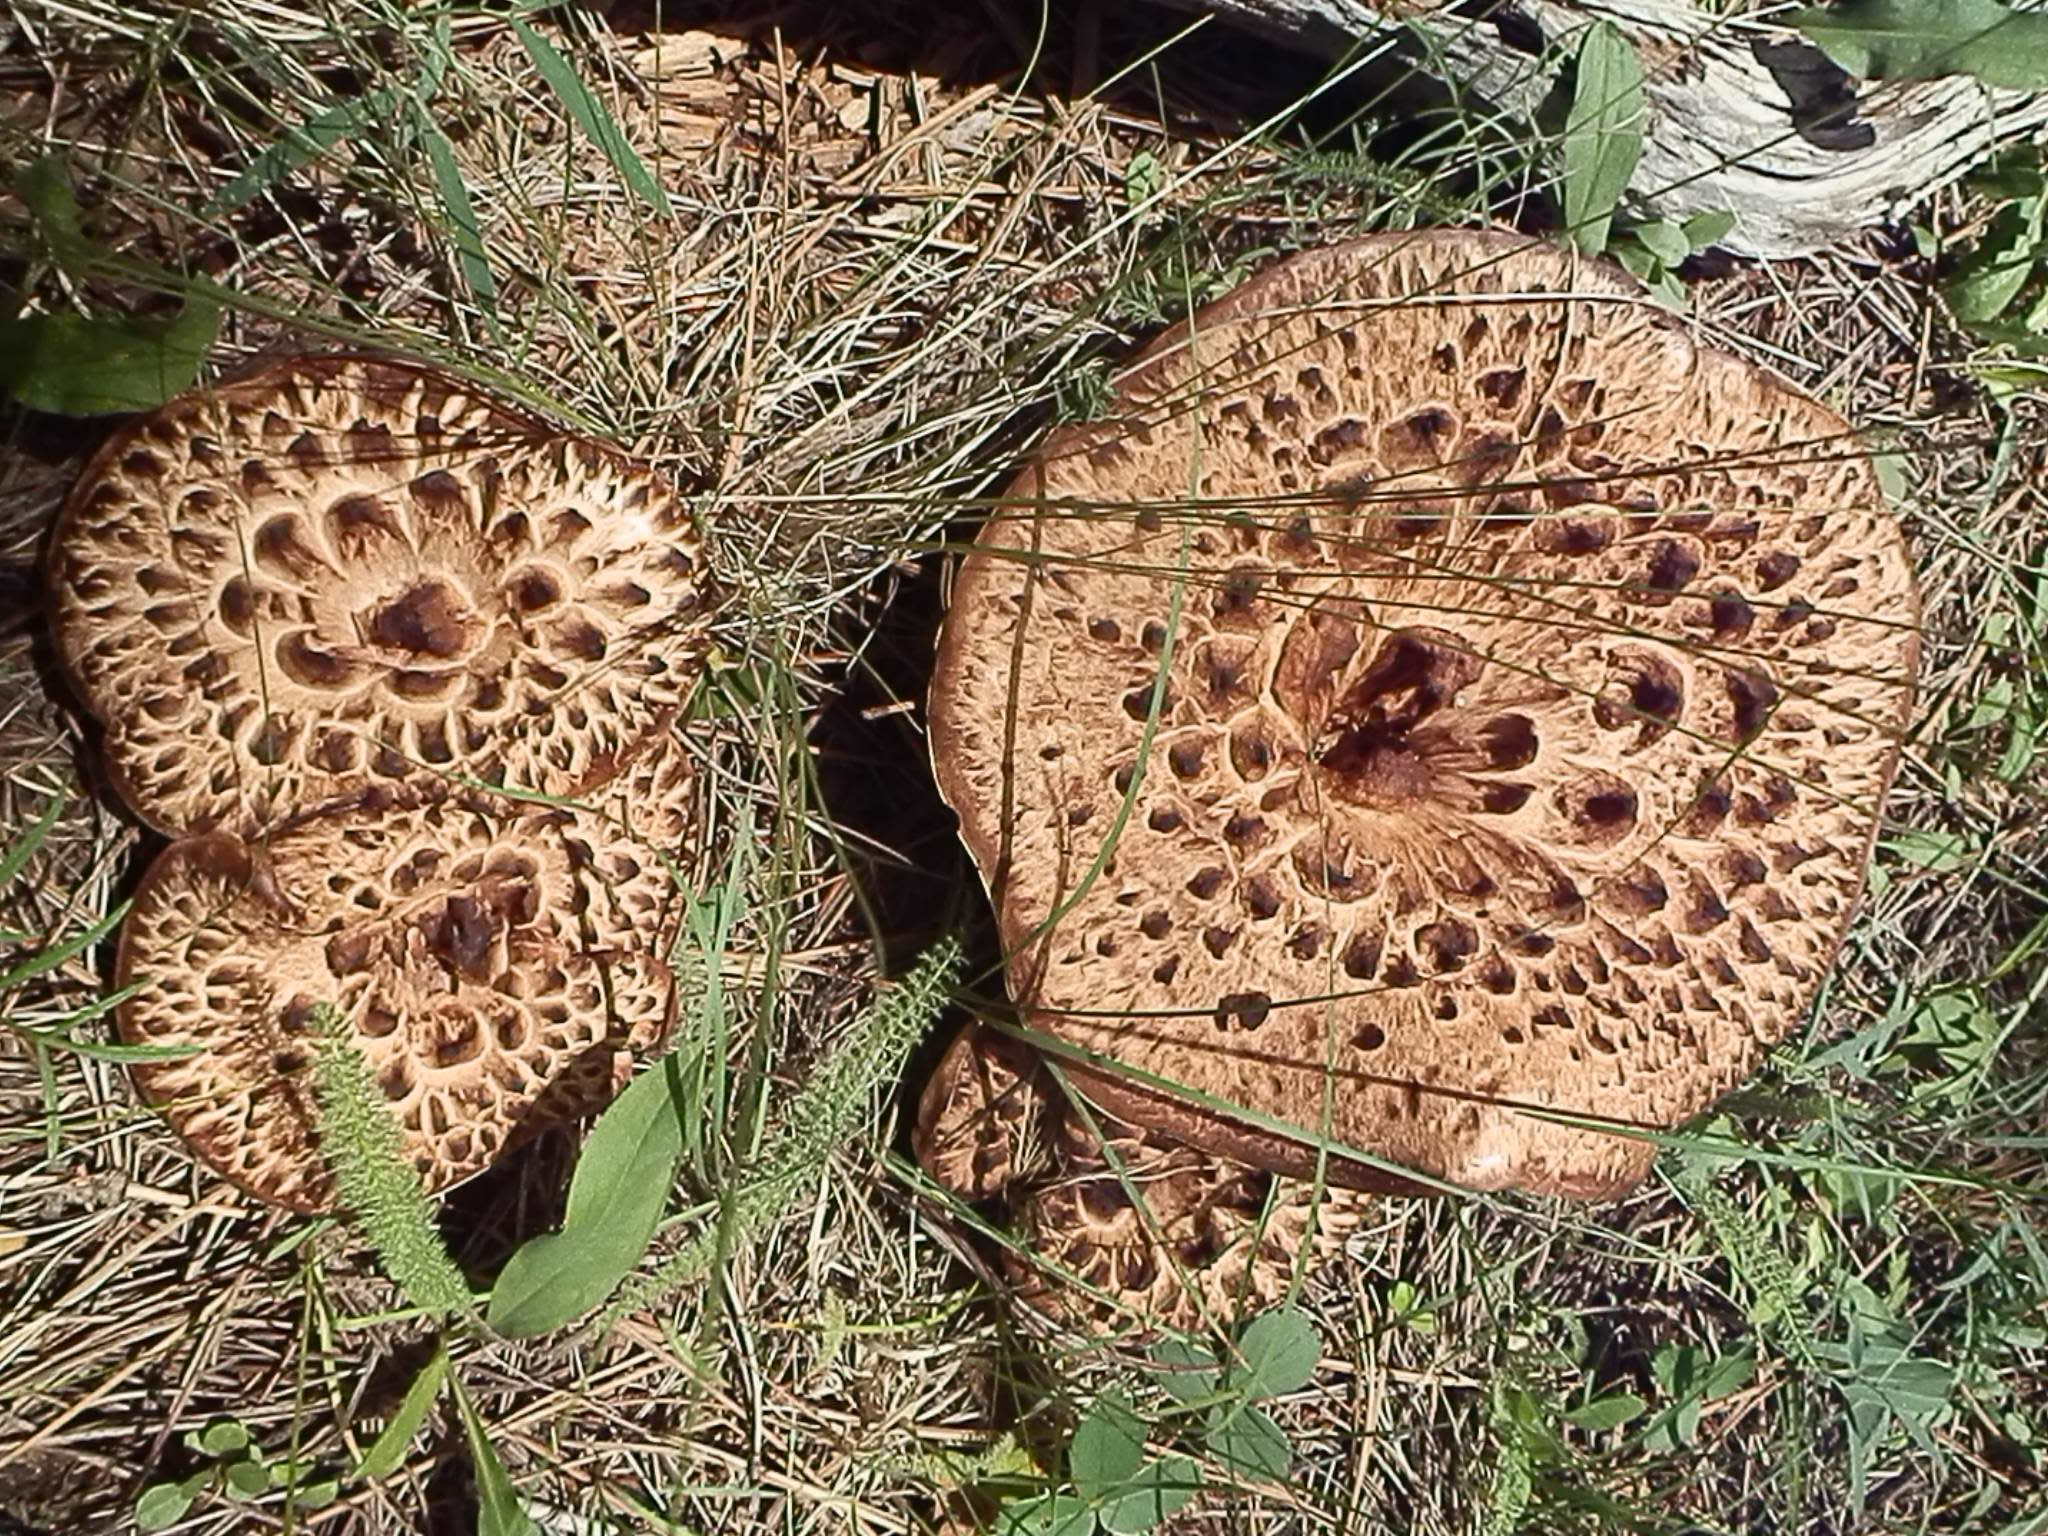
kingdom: Fungi
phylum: Basidiomycota
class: Agaricomycetes
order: Thelephorales
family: Bankeraceae
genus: Sarcodon
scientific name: Sarcodon imbricatus
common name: Shingled hedgehog
